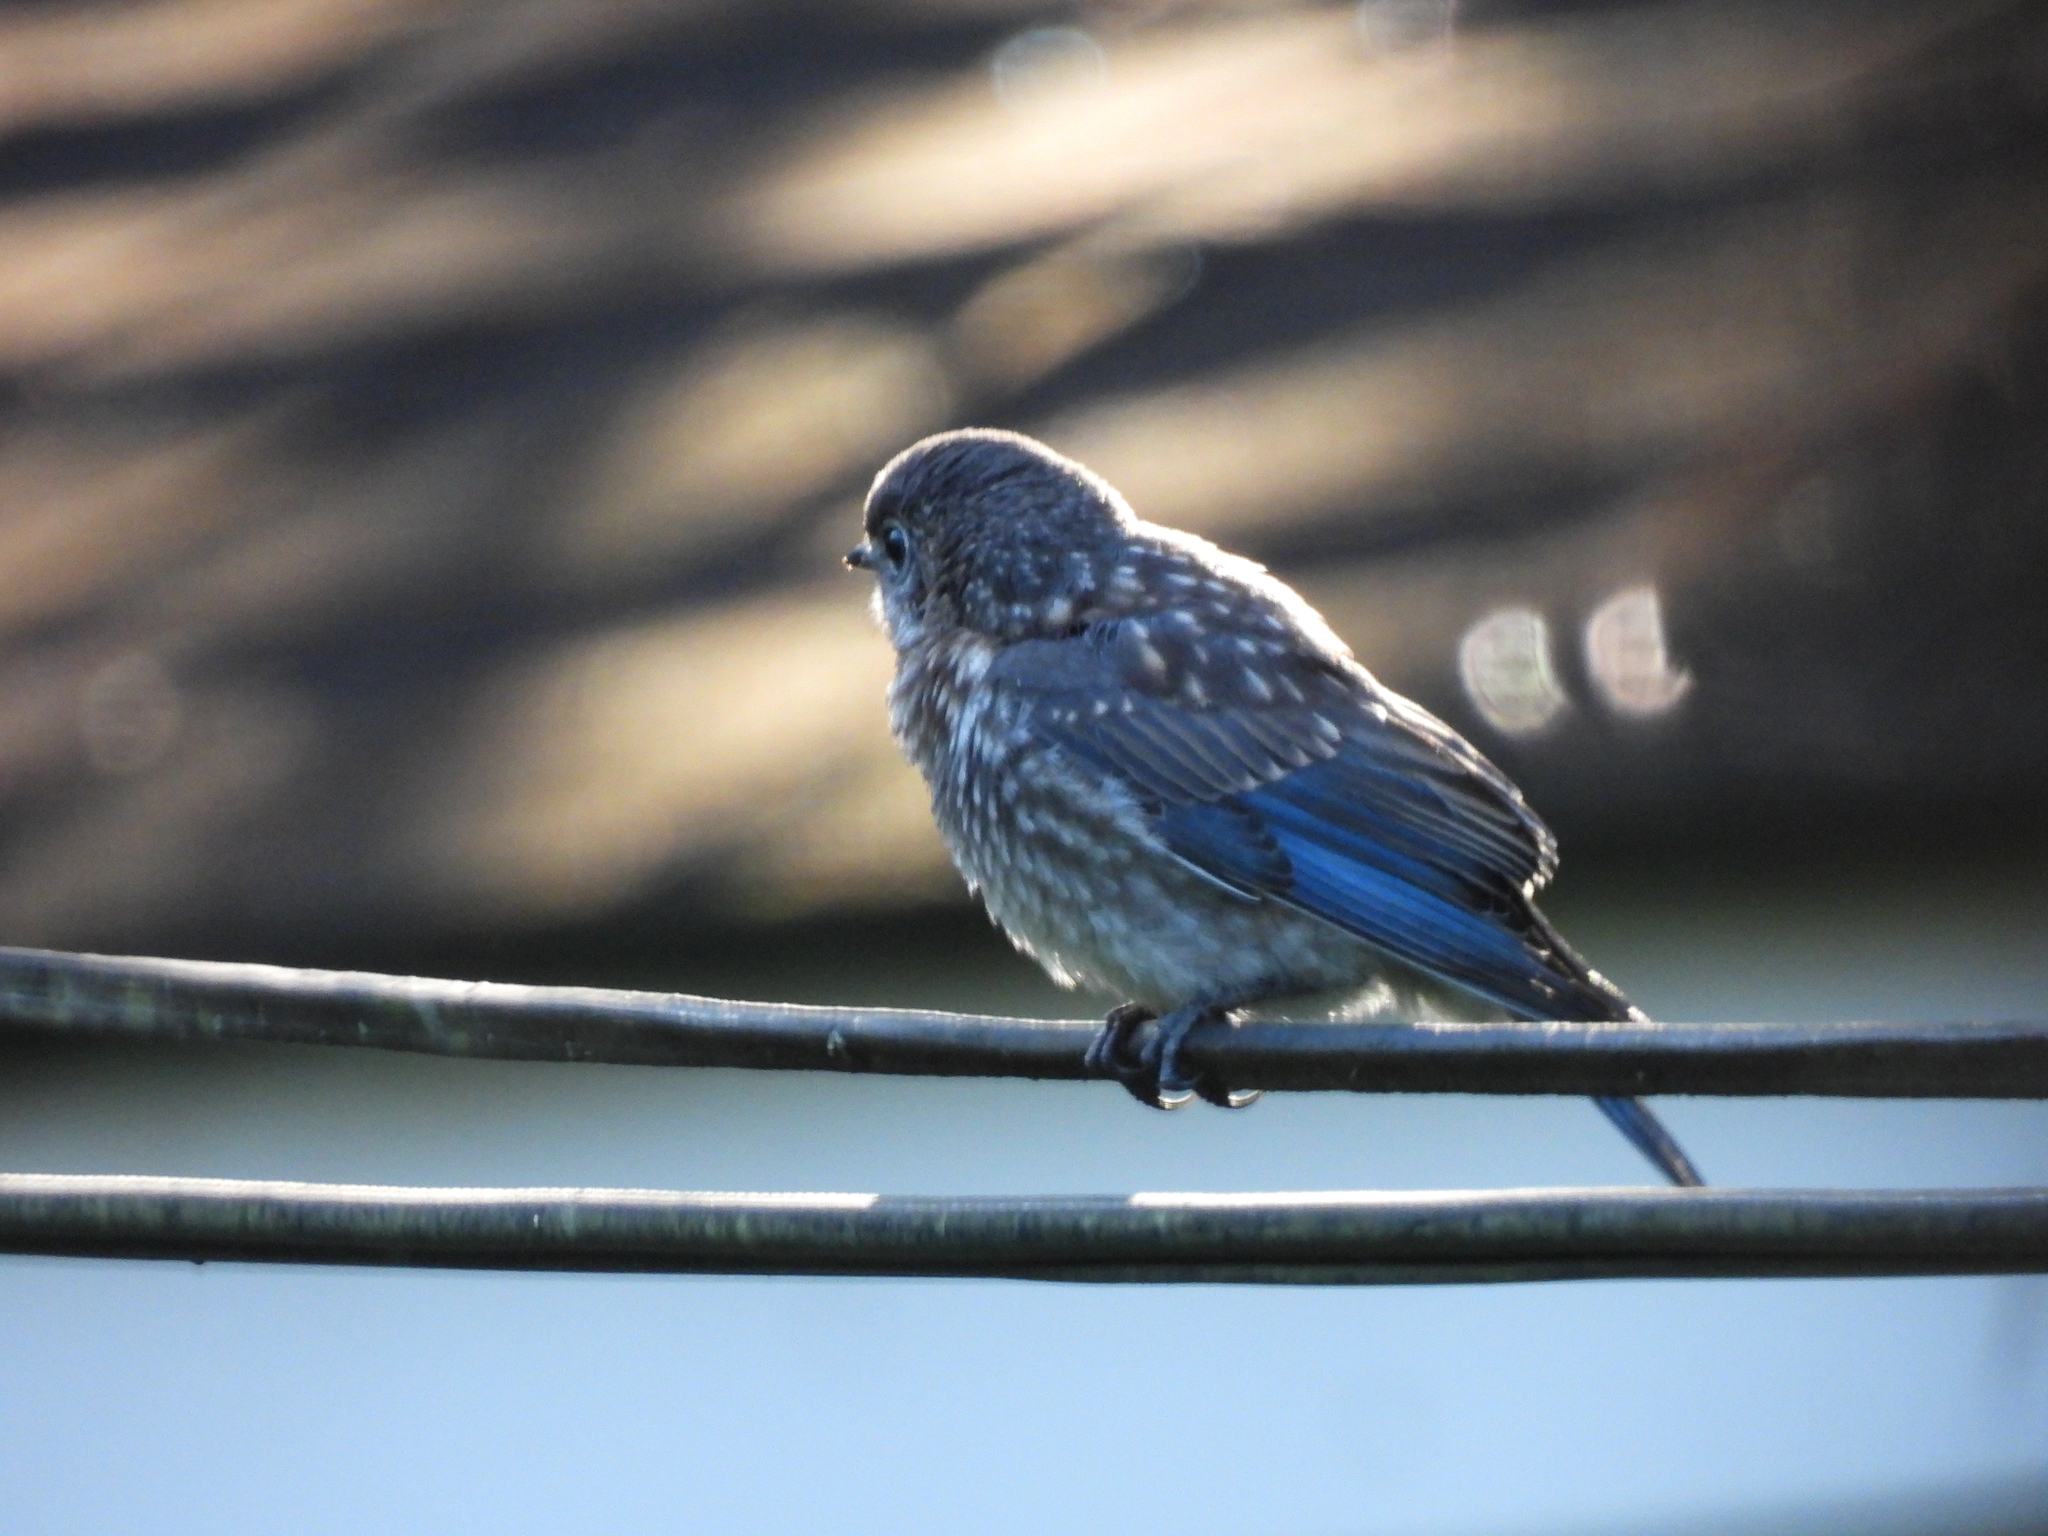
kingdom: Animalia
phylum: Chordata
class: Aves
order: Passeriformes
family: Turdidae
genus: Sialia
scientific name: Sialia sialis
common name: Eastern bluebird
